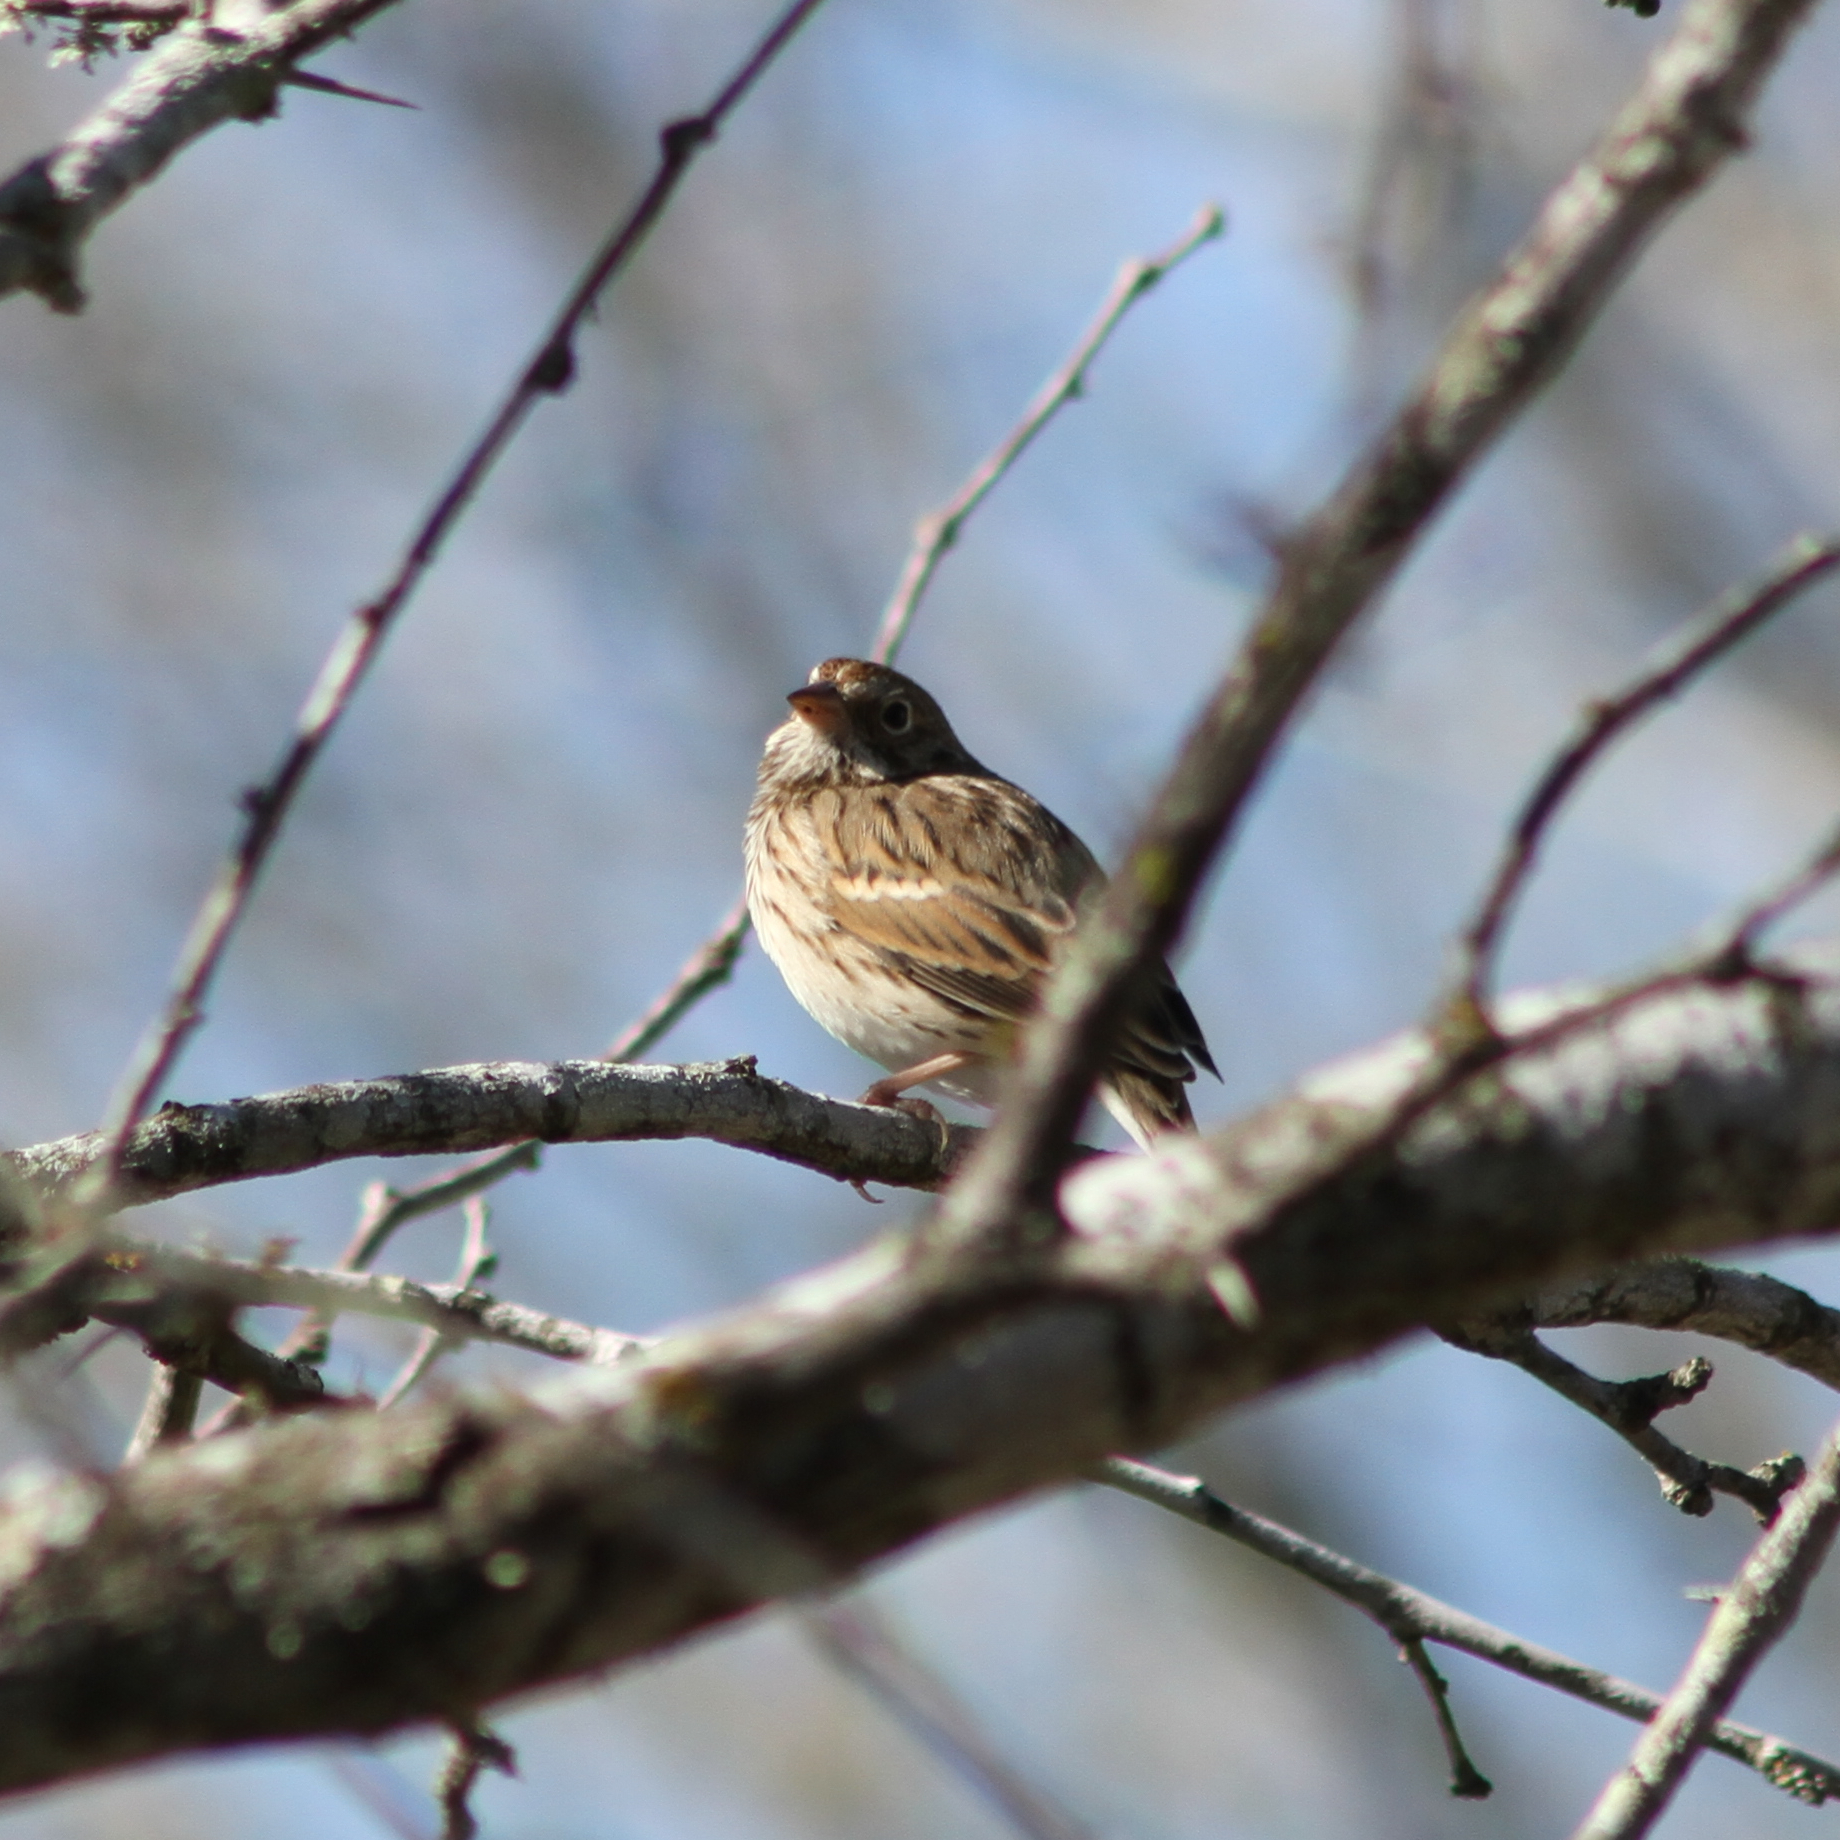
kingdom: Animalia
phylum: Chordata
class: Aves
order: Passeriformes
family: Passerellidae
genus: Pooecetes
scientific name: Pooecetes gramineus
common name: Vesper sparrow
